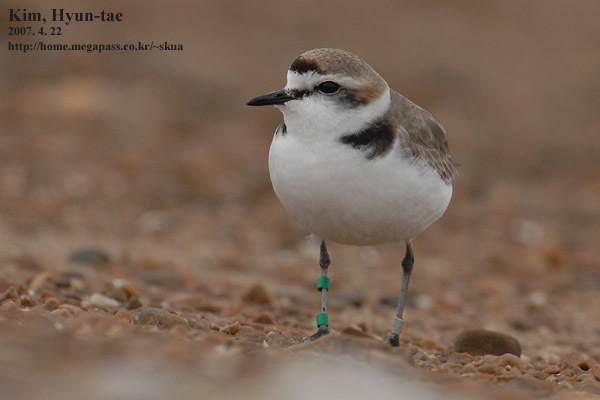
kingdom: Animalia
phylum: Chordata
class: Aves
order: Charadriiformes
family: Charadriidae
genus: Charadrius
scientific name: Charadrius alexandrinus
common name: Kentish plover
